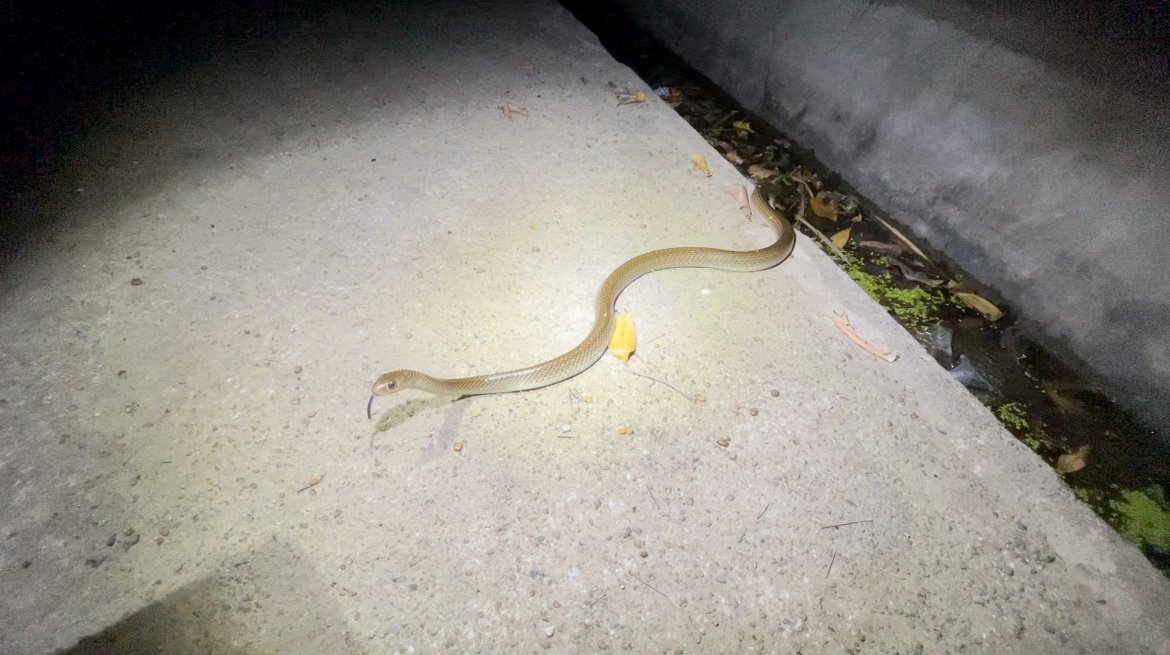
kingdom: Animalia
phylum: Chordata
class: Squamata
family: Colubridae
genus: Ptyas
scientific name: Ptyas korros
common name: Indo-chinese rat snake
